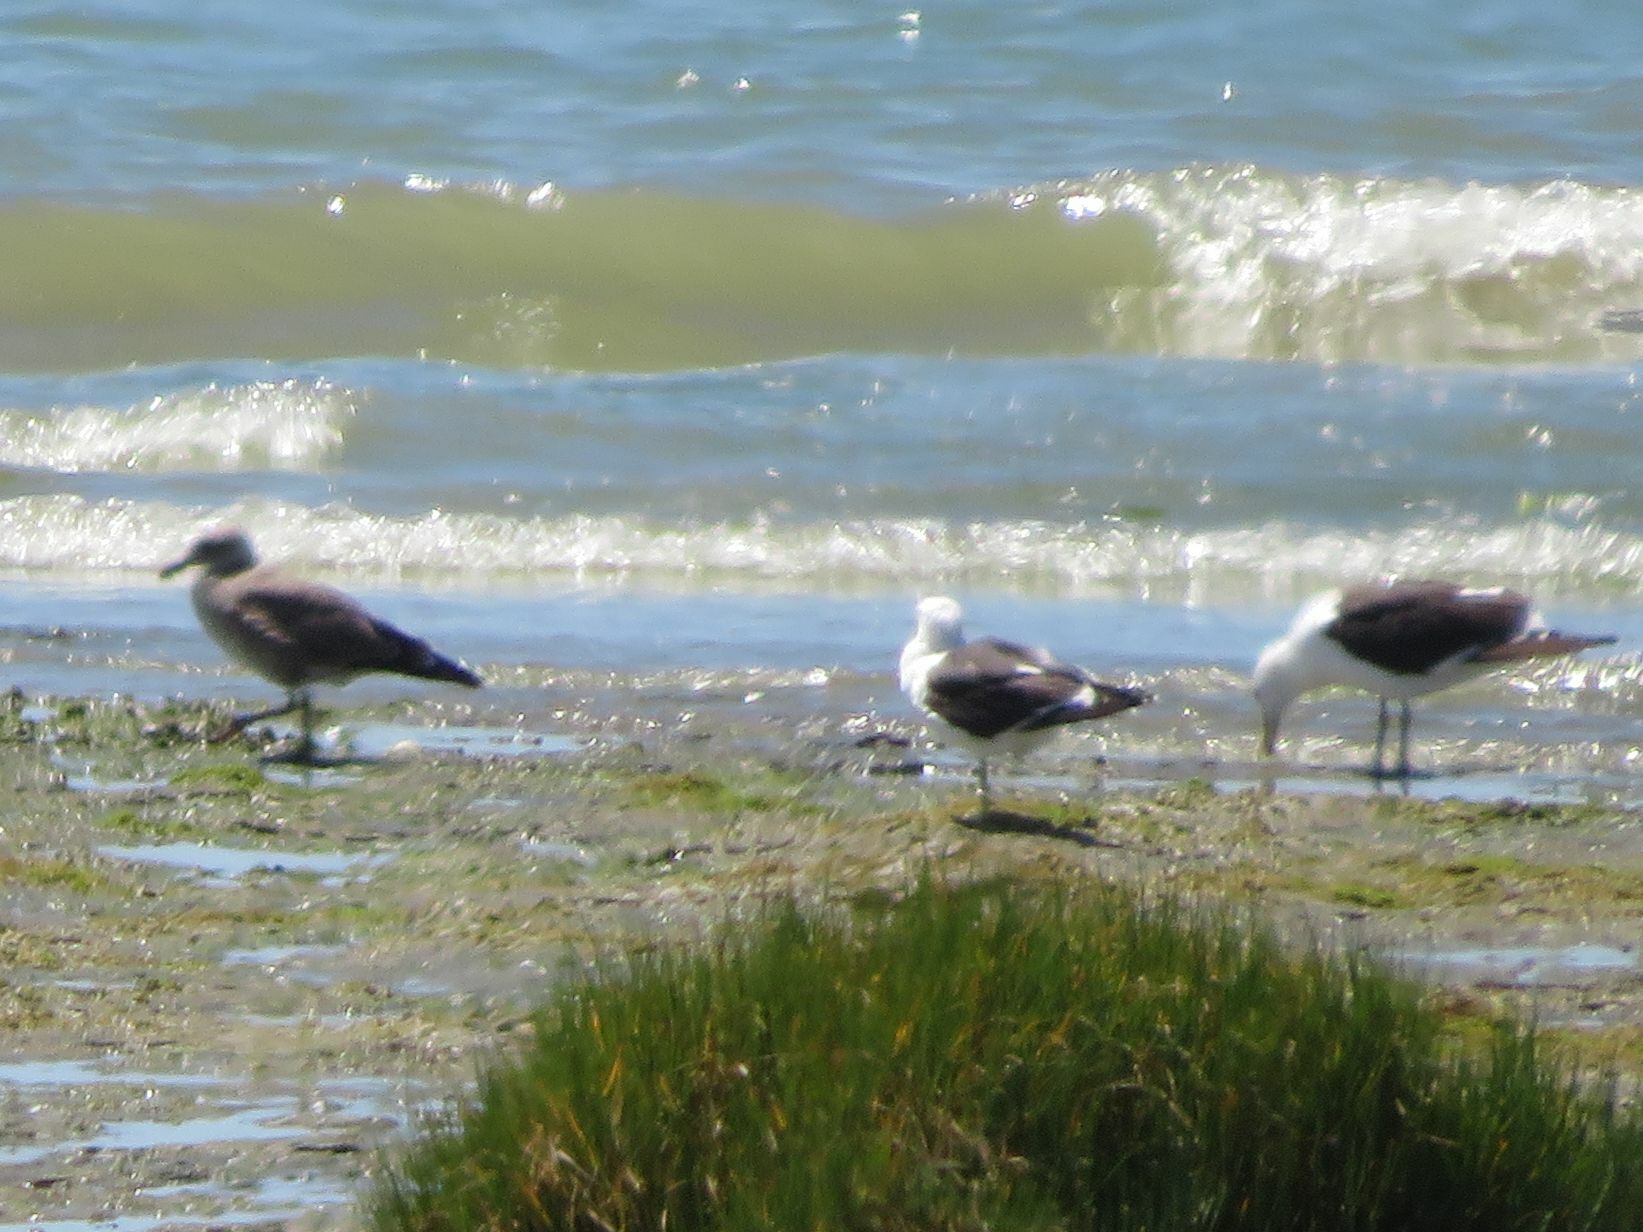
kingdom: Animalia
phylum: Chordata
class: Aves
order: Charadriiformes
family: Laridae
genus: Larus
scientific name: Larus dominicanus
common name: Kelp gull
